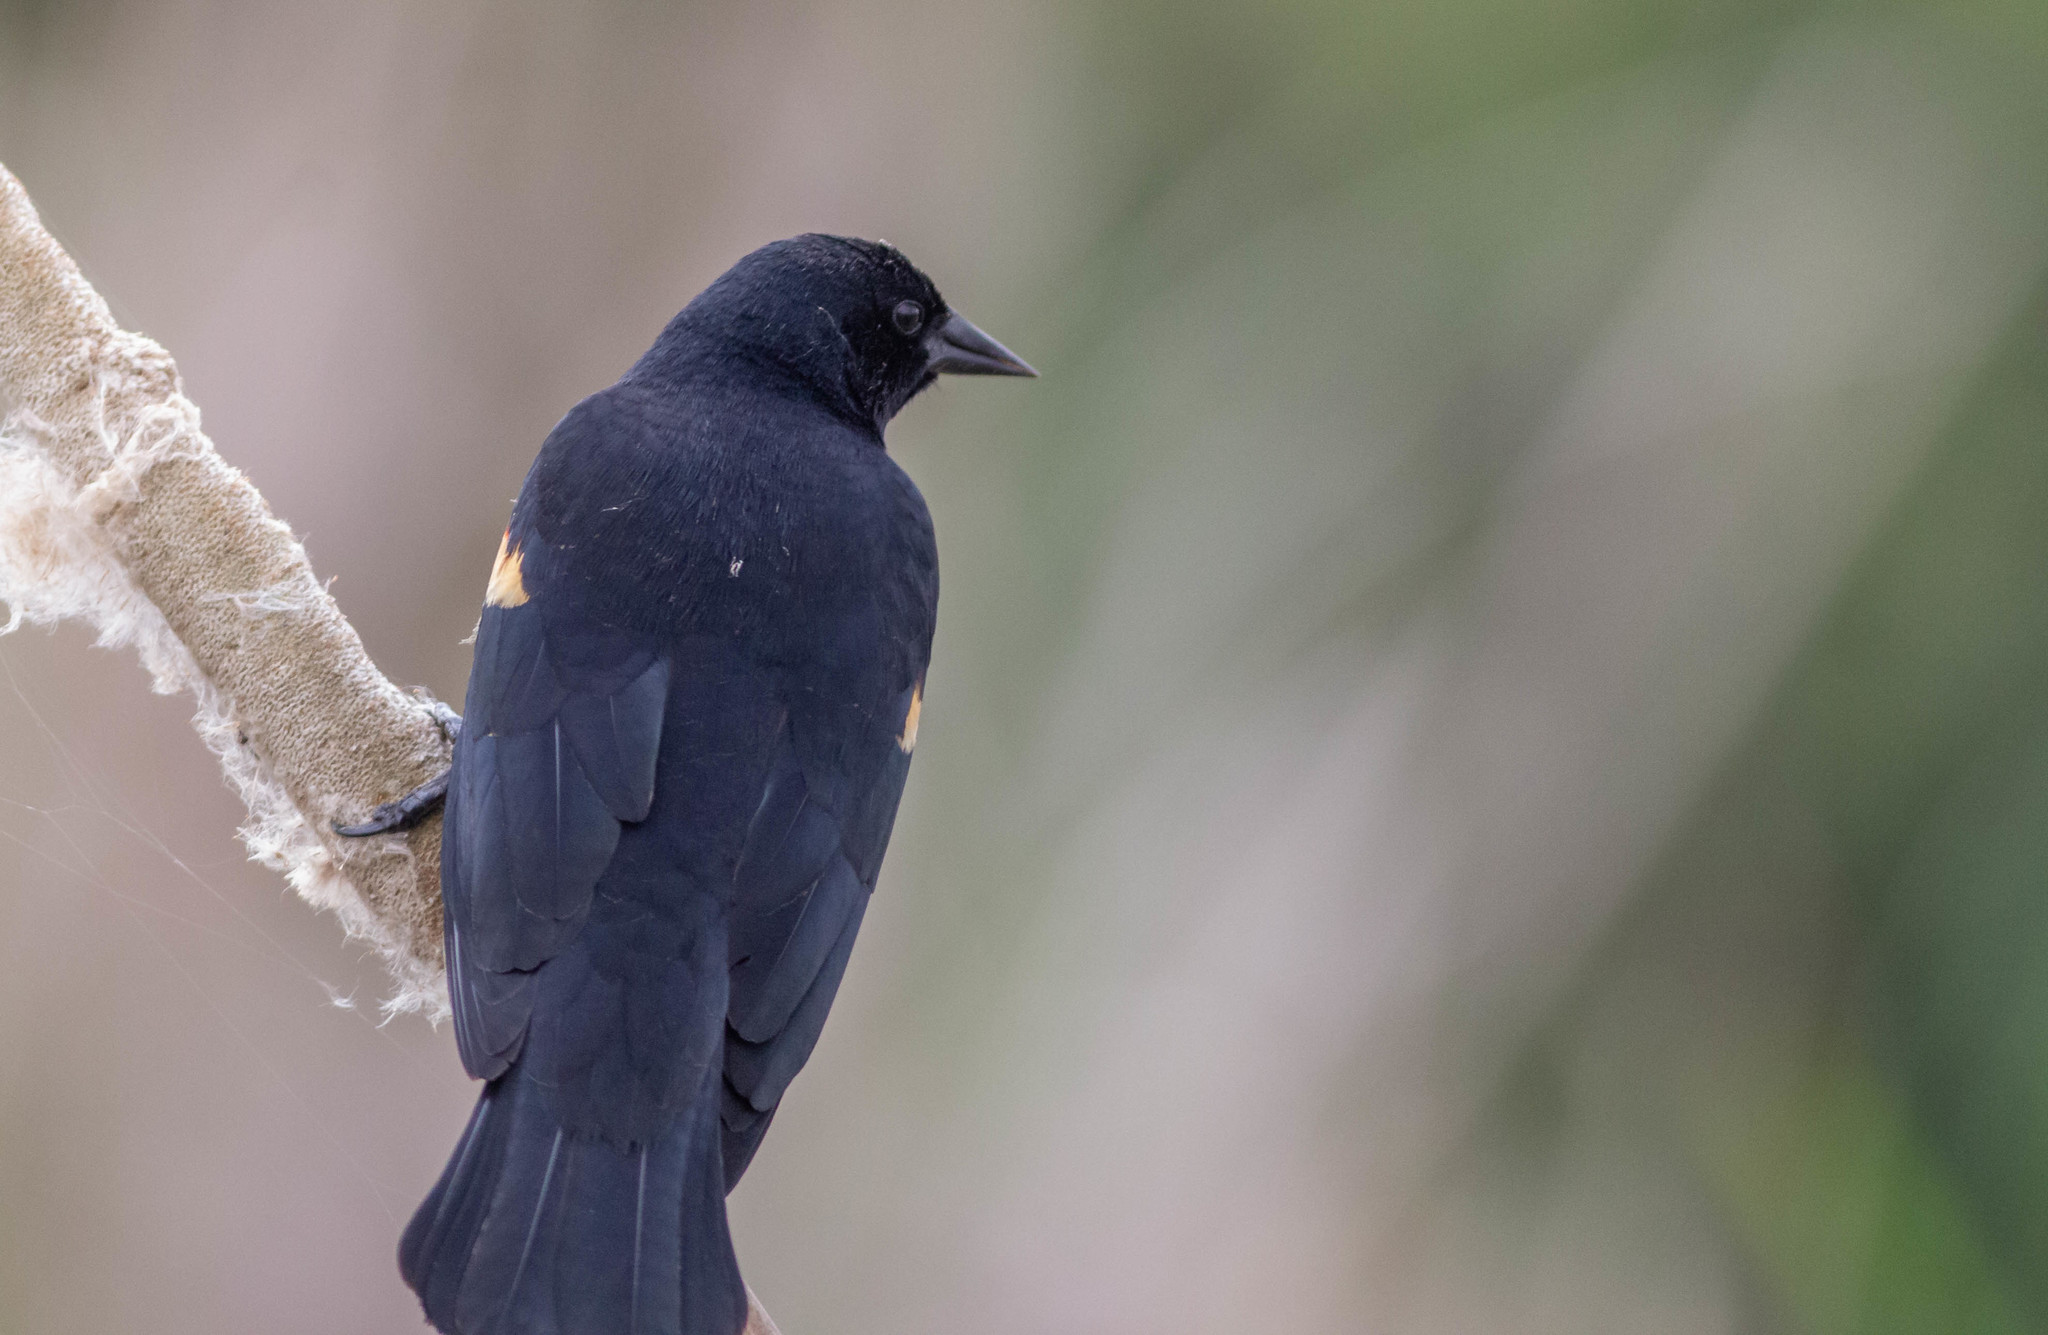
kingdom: Animalia
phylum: Chordata
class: Aves
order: Passeriformes
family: Icteridae
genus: Agelaius
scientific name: Agelaius phoeniceus
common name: Red-winged blackbird
